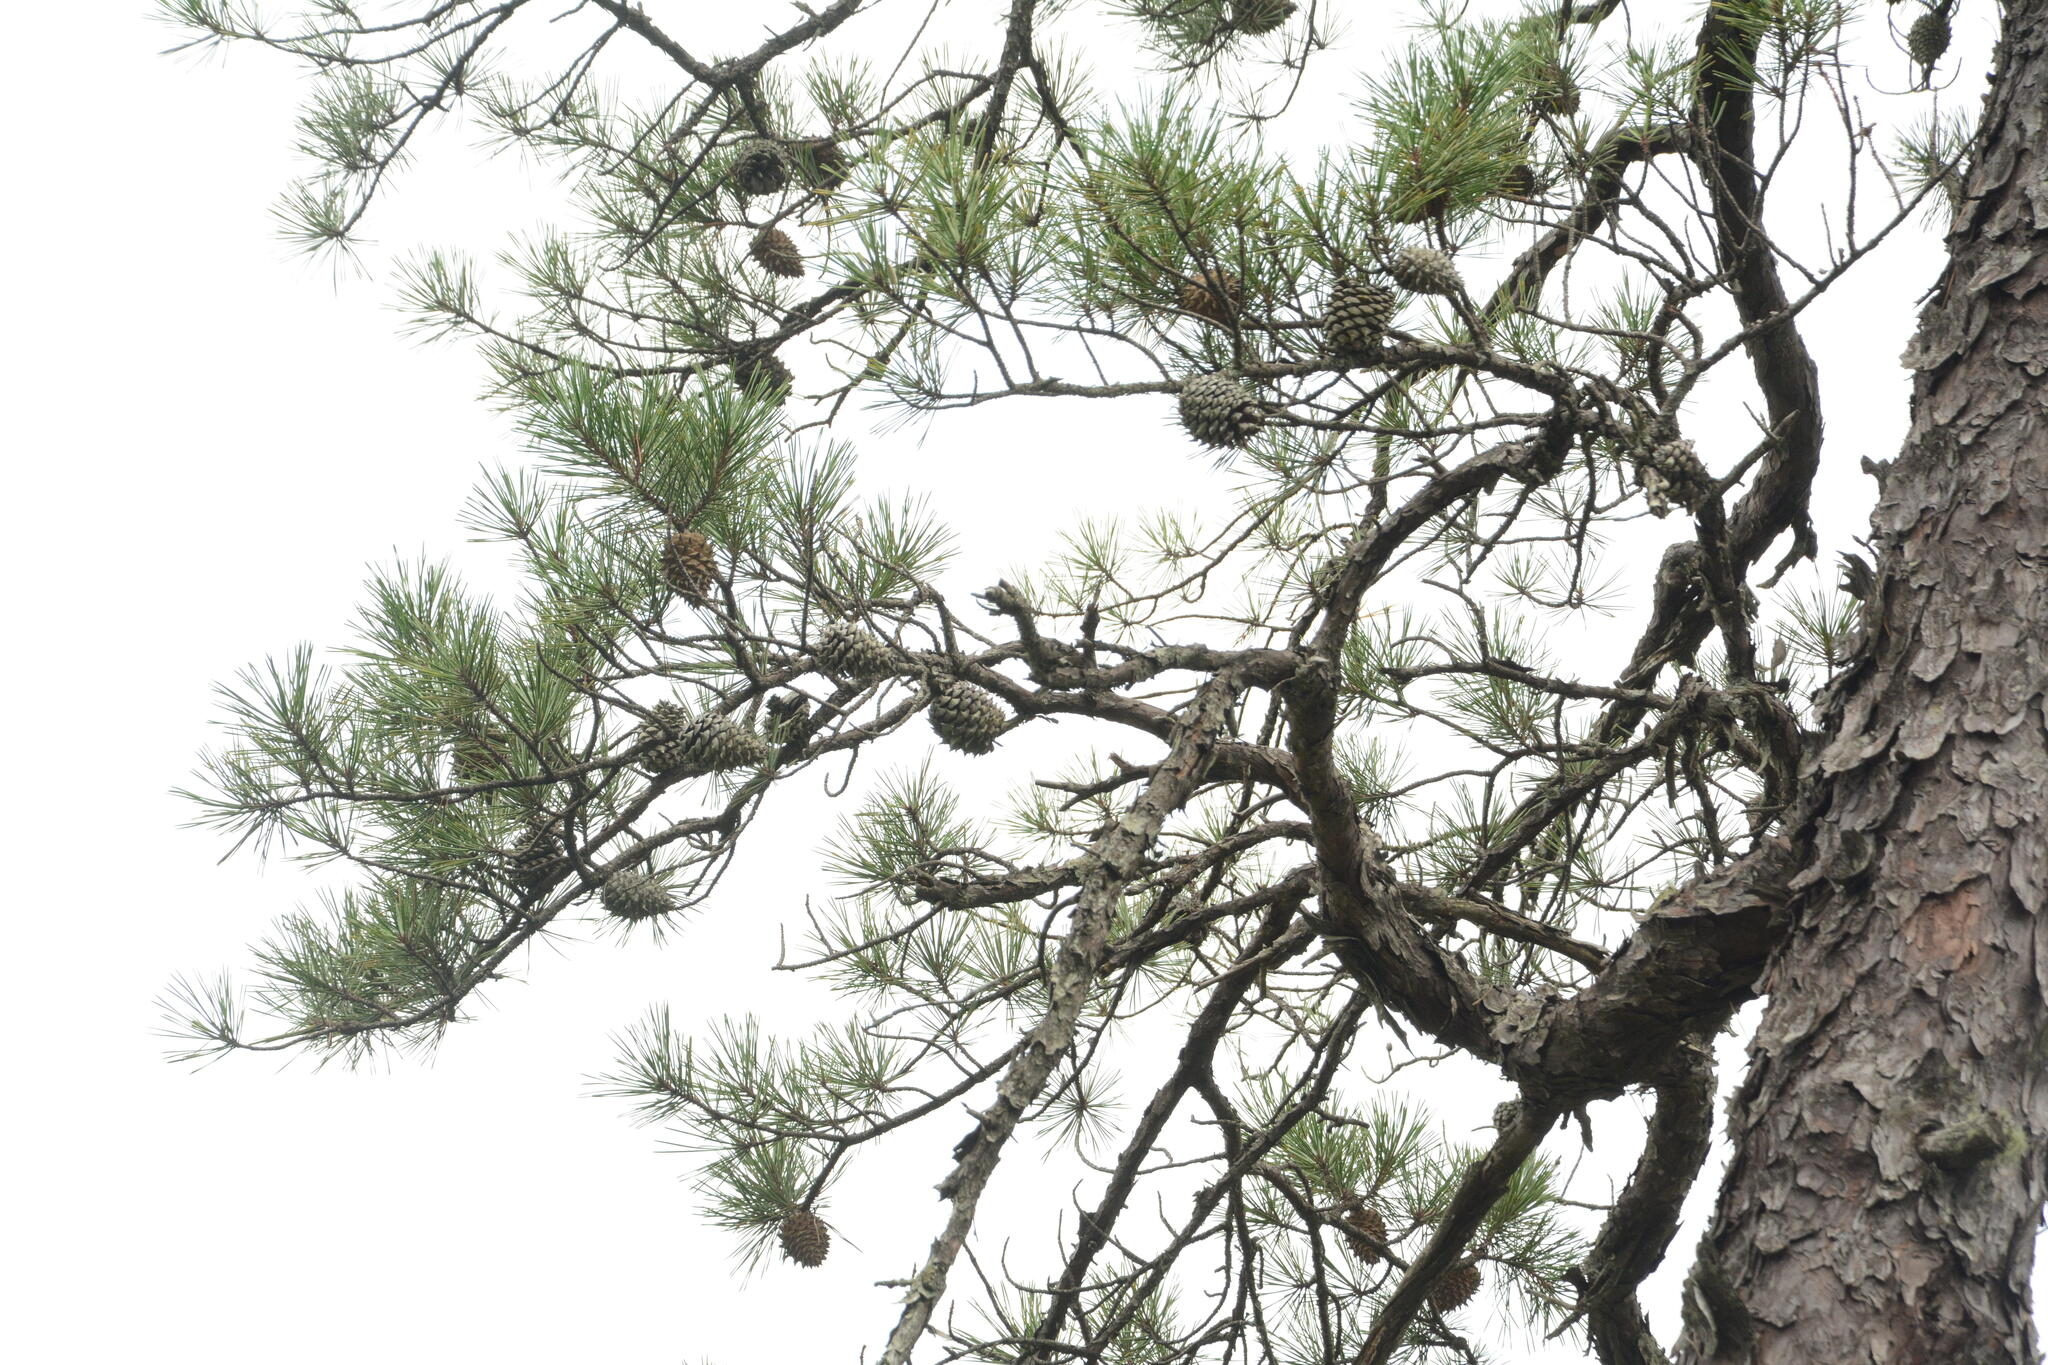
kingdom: Plantae
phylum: Tracheophyta
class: Pinopsida
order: Pinales
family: Pinaceae
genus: Pinus
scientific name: Pinus pungens
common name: Hickory pine
